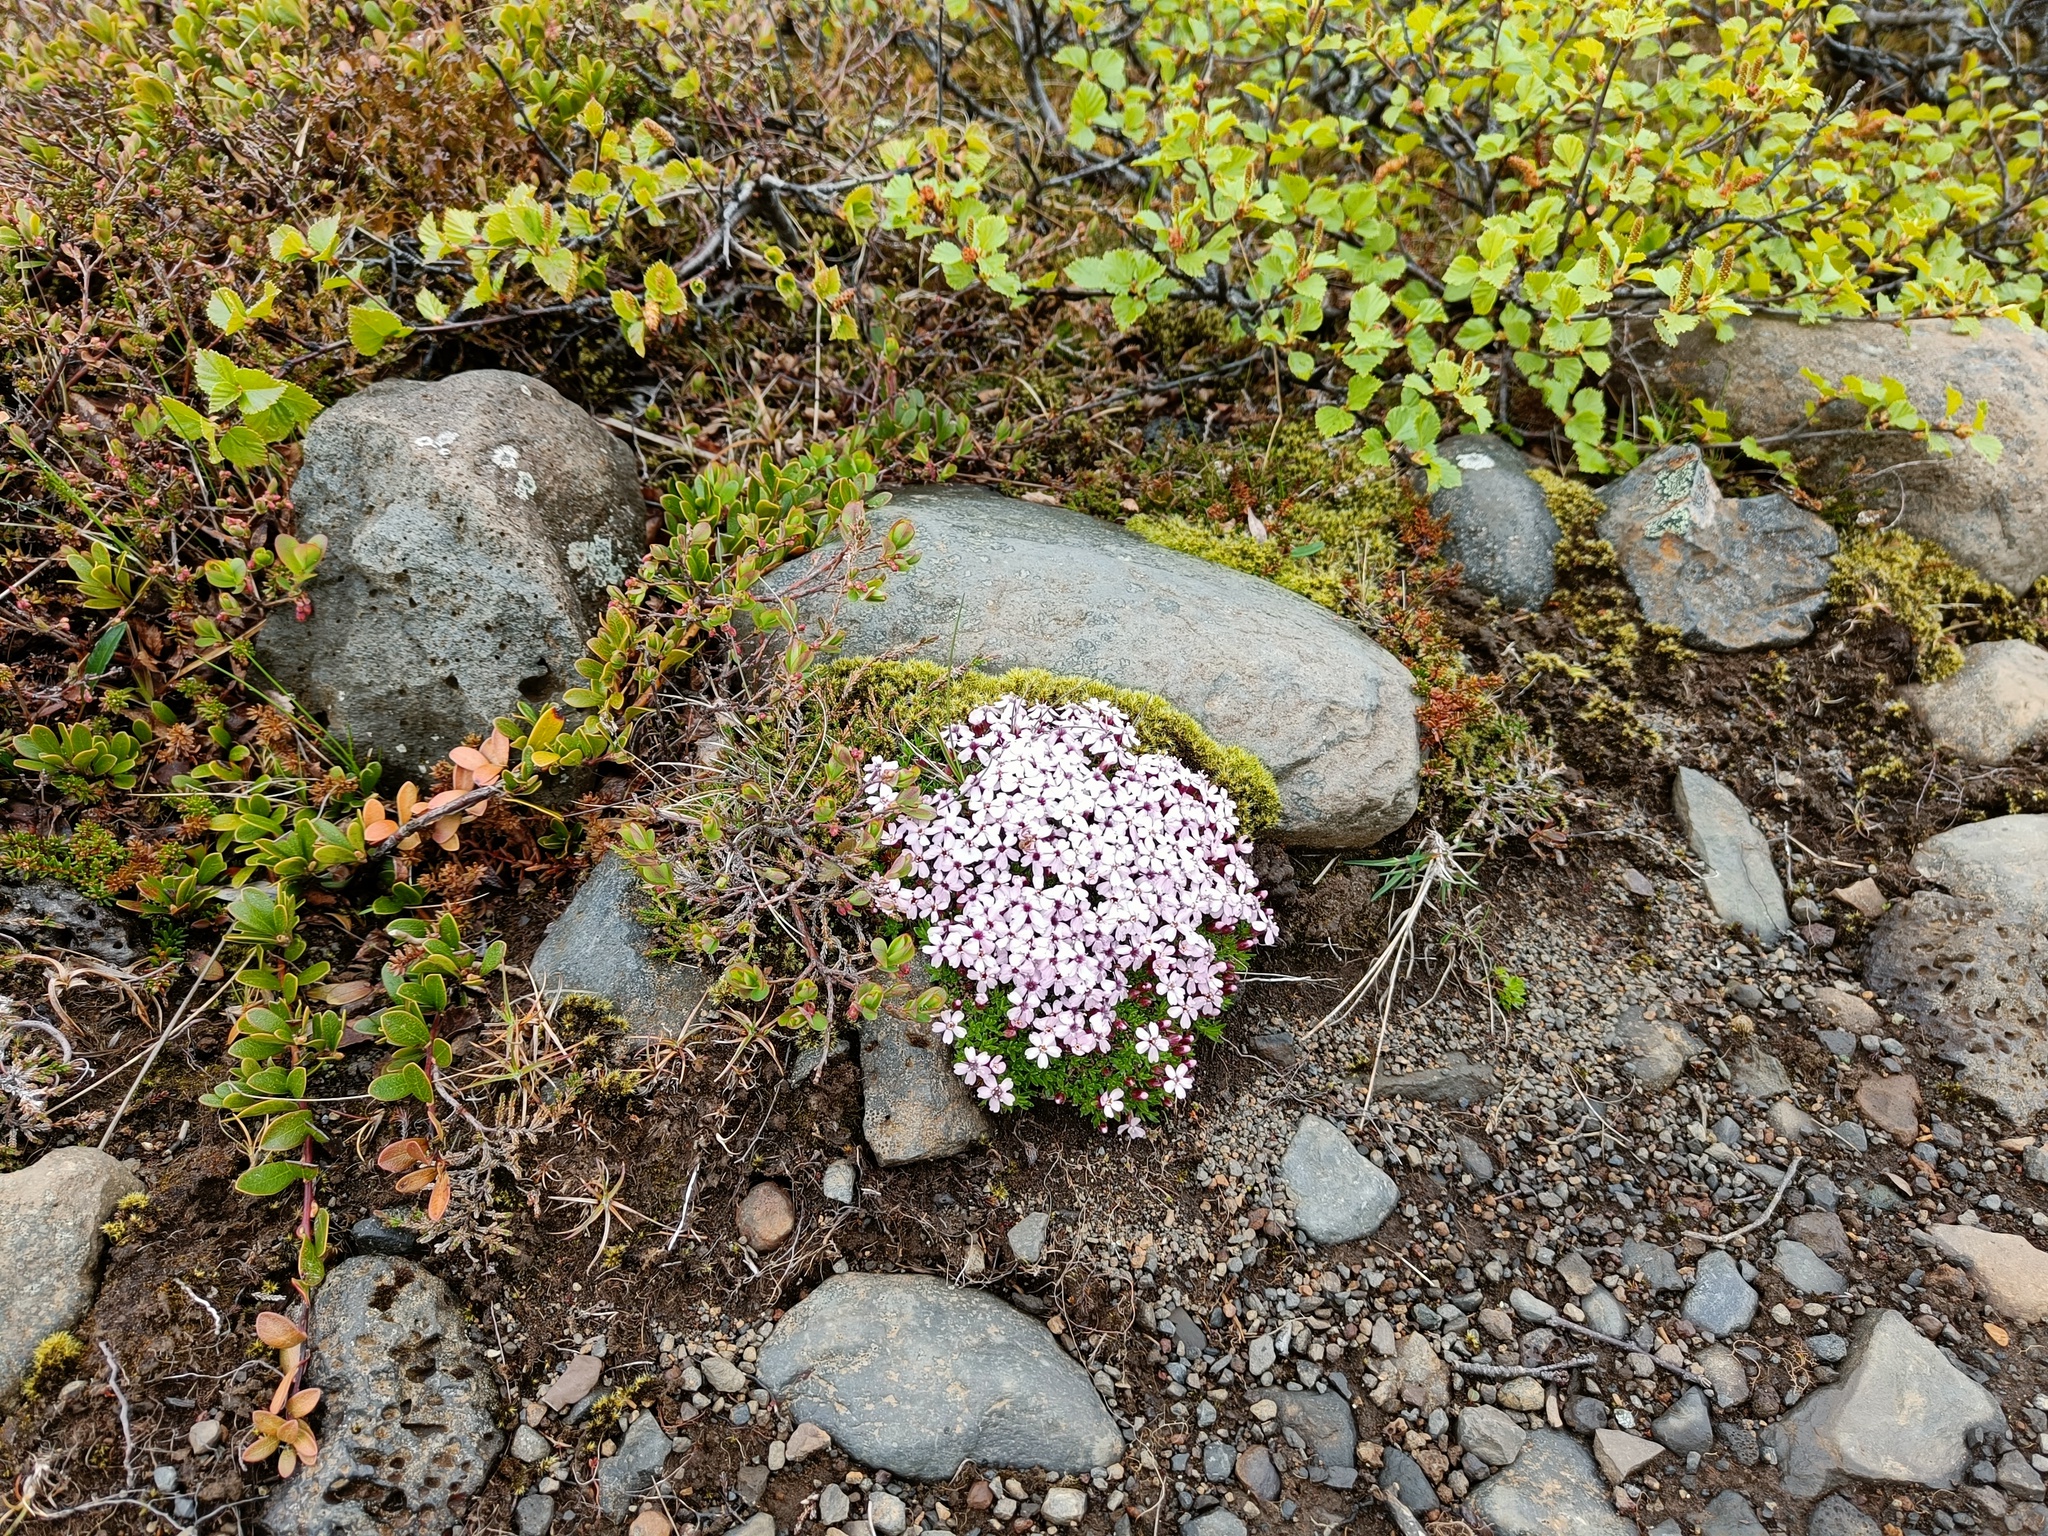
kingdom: Plantae
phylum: Tracheophyta
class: Magnoliopsida
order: Caryophyllales
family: Caryophyllaceae
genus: Silene
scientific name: Silene acaulis
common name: Moss campion
